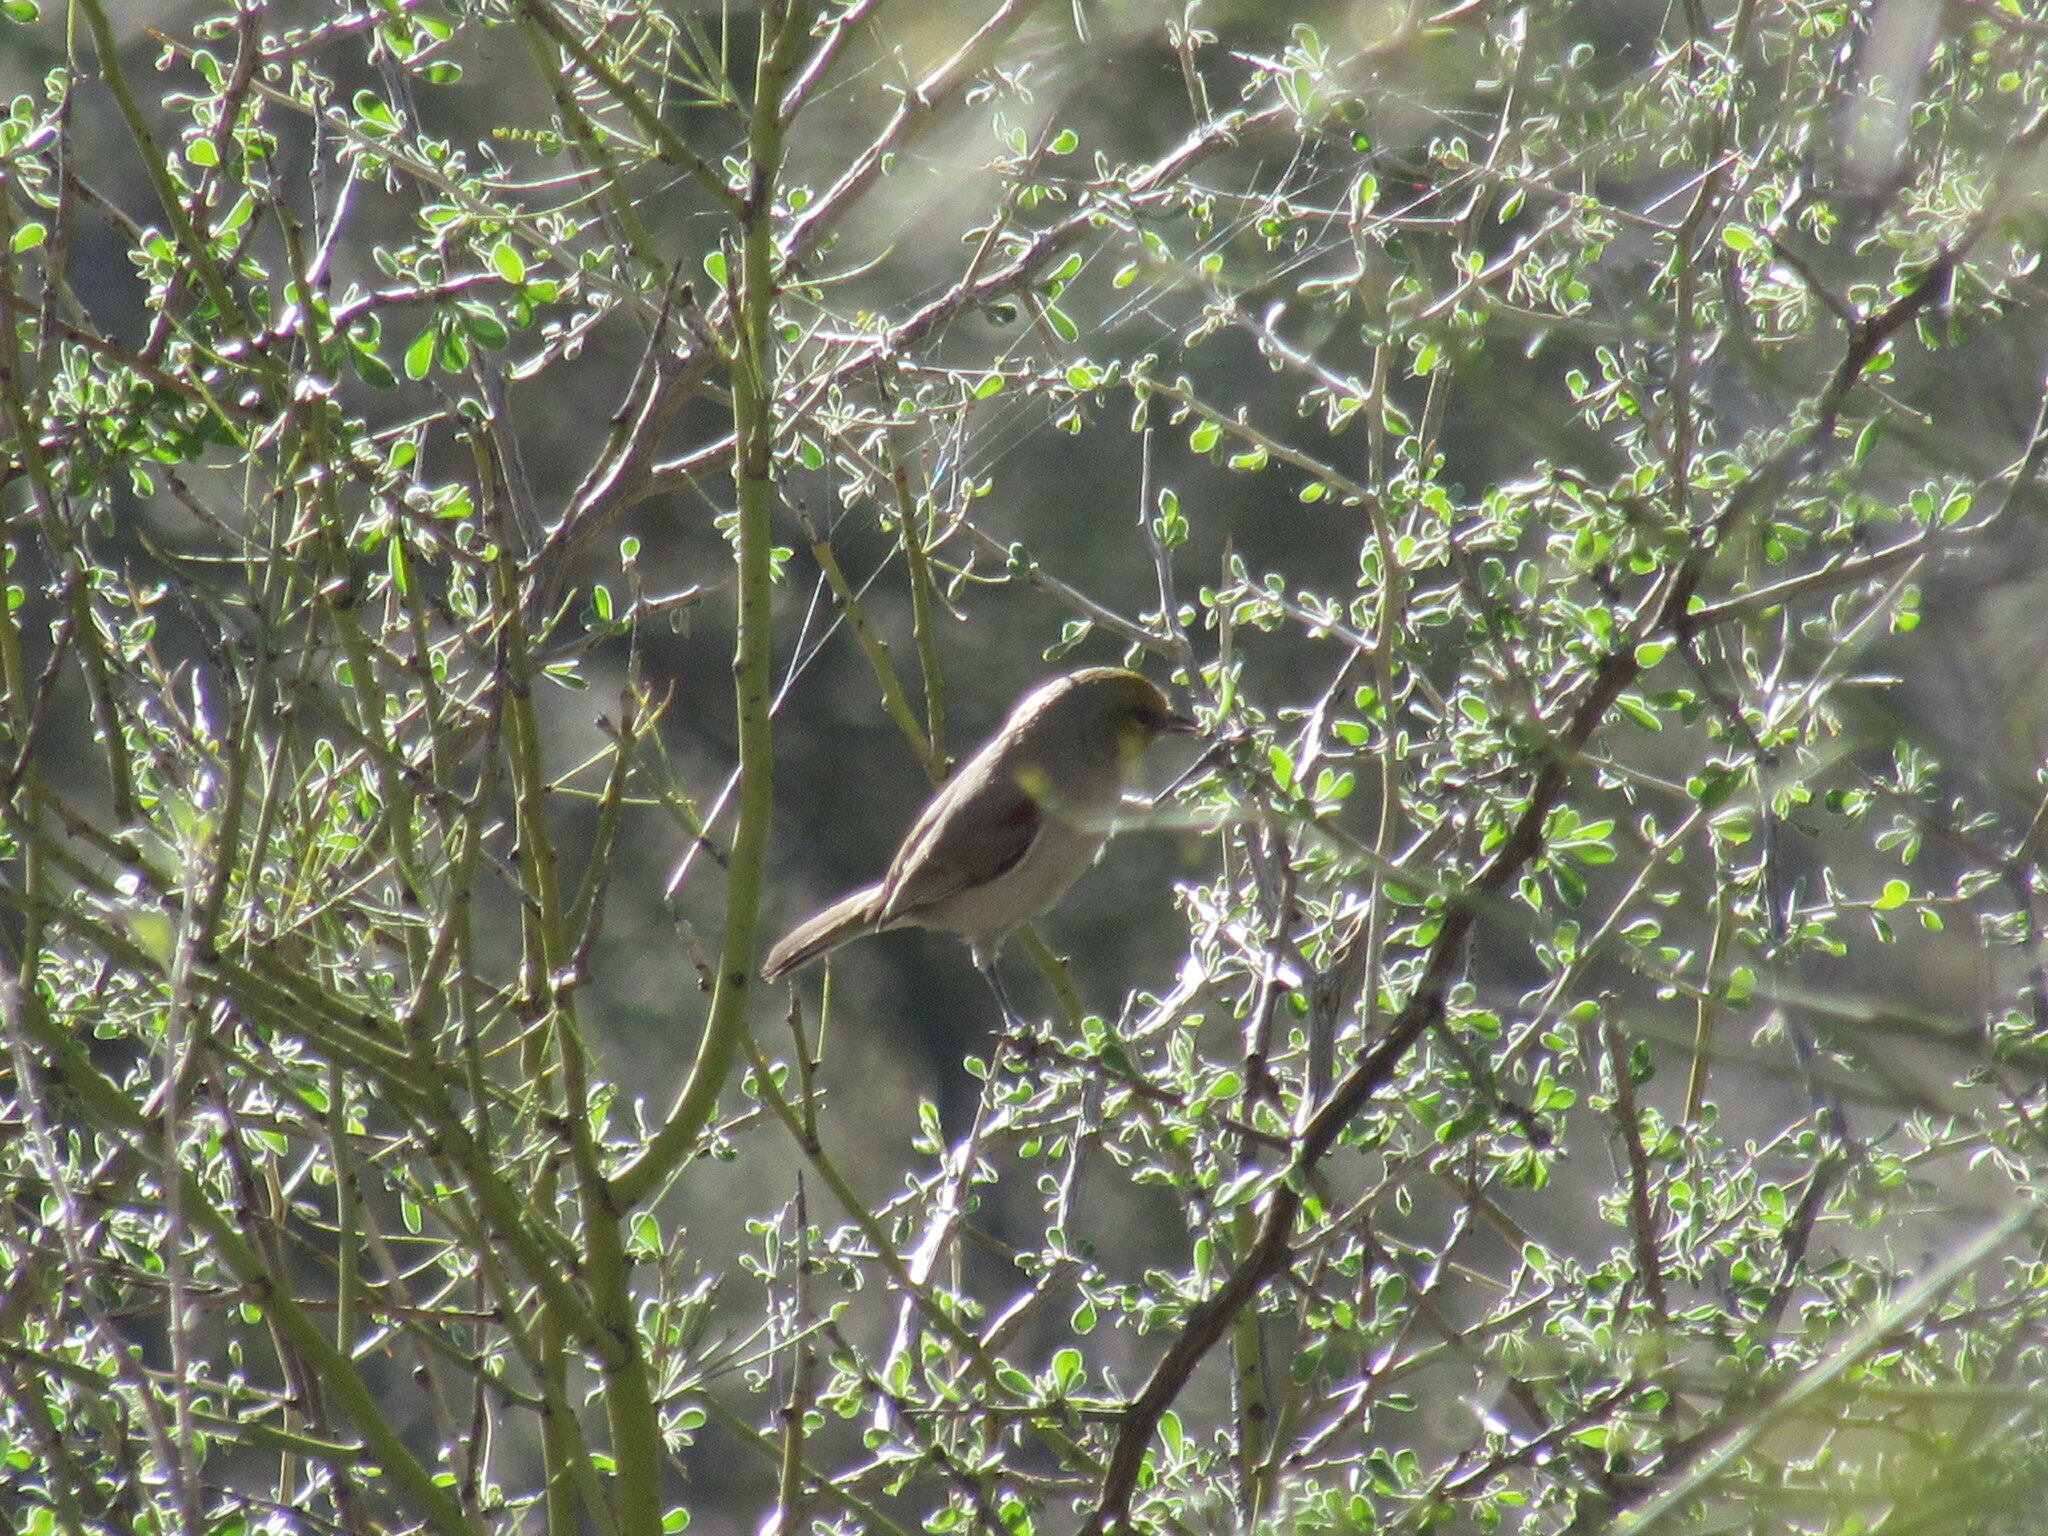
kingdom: Animalia
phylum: Chordata
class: Aves
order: Passeriformes
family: Remizidae
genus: Auriparus
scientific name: Auriparus flaviceps
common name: Verdin
